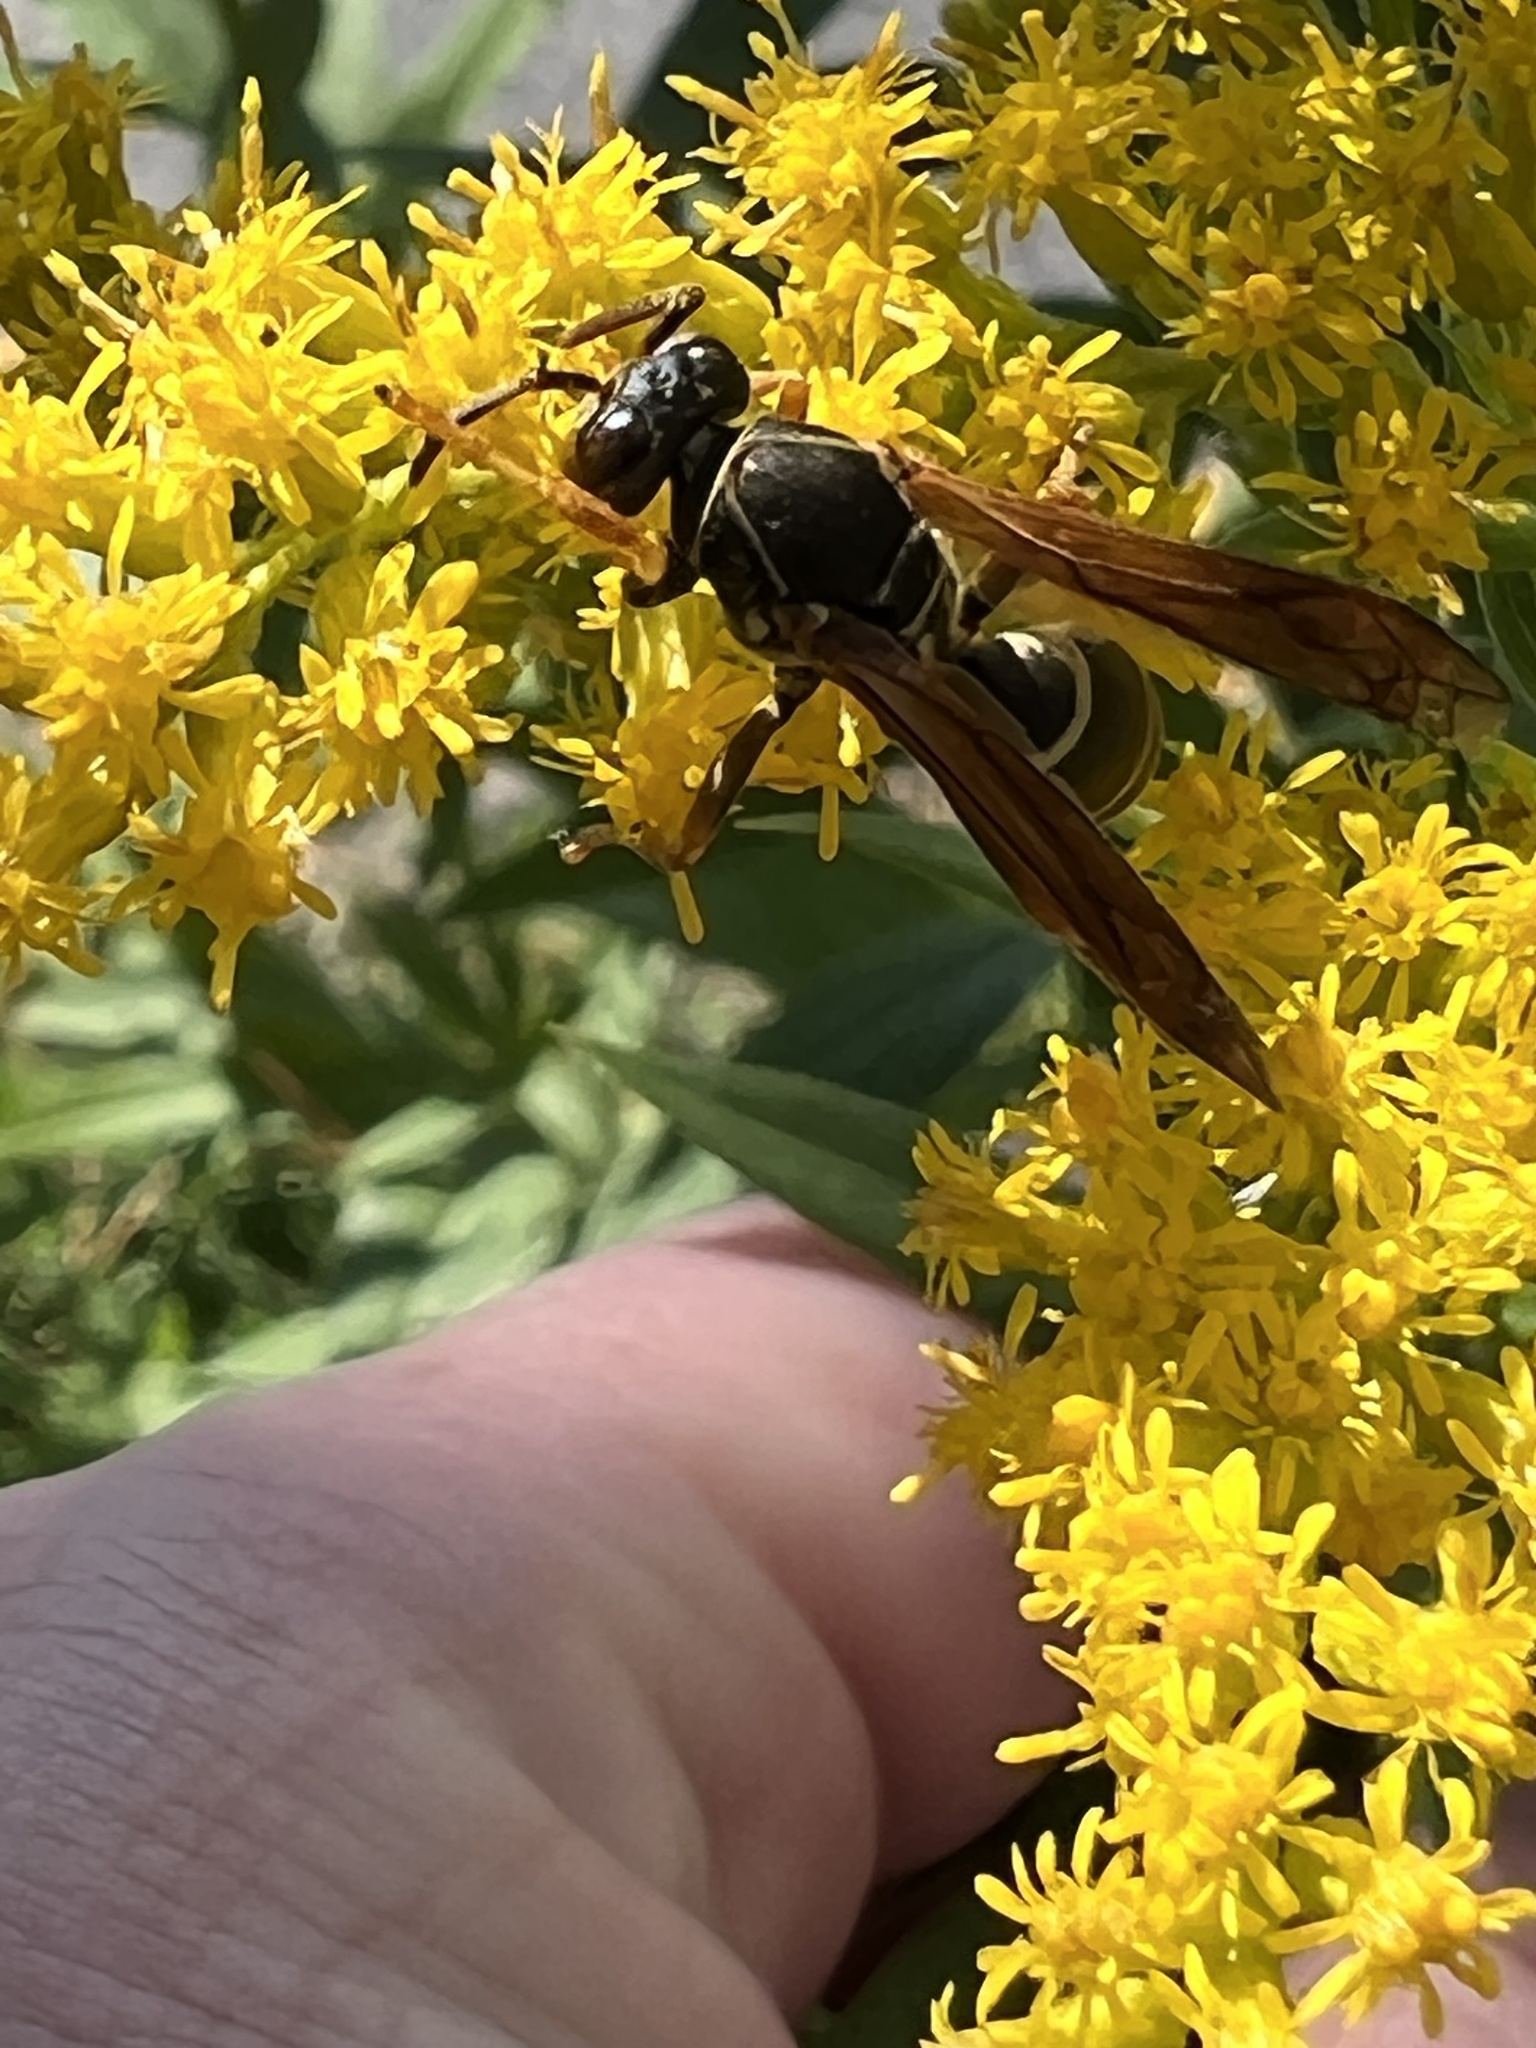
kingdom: Animalia
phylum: Arthropoda
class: Insecta
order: Hymenoptera
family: Eumenidae
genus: Polistes
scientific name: Polistes fuscatus
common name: Dark paper wasp
